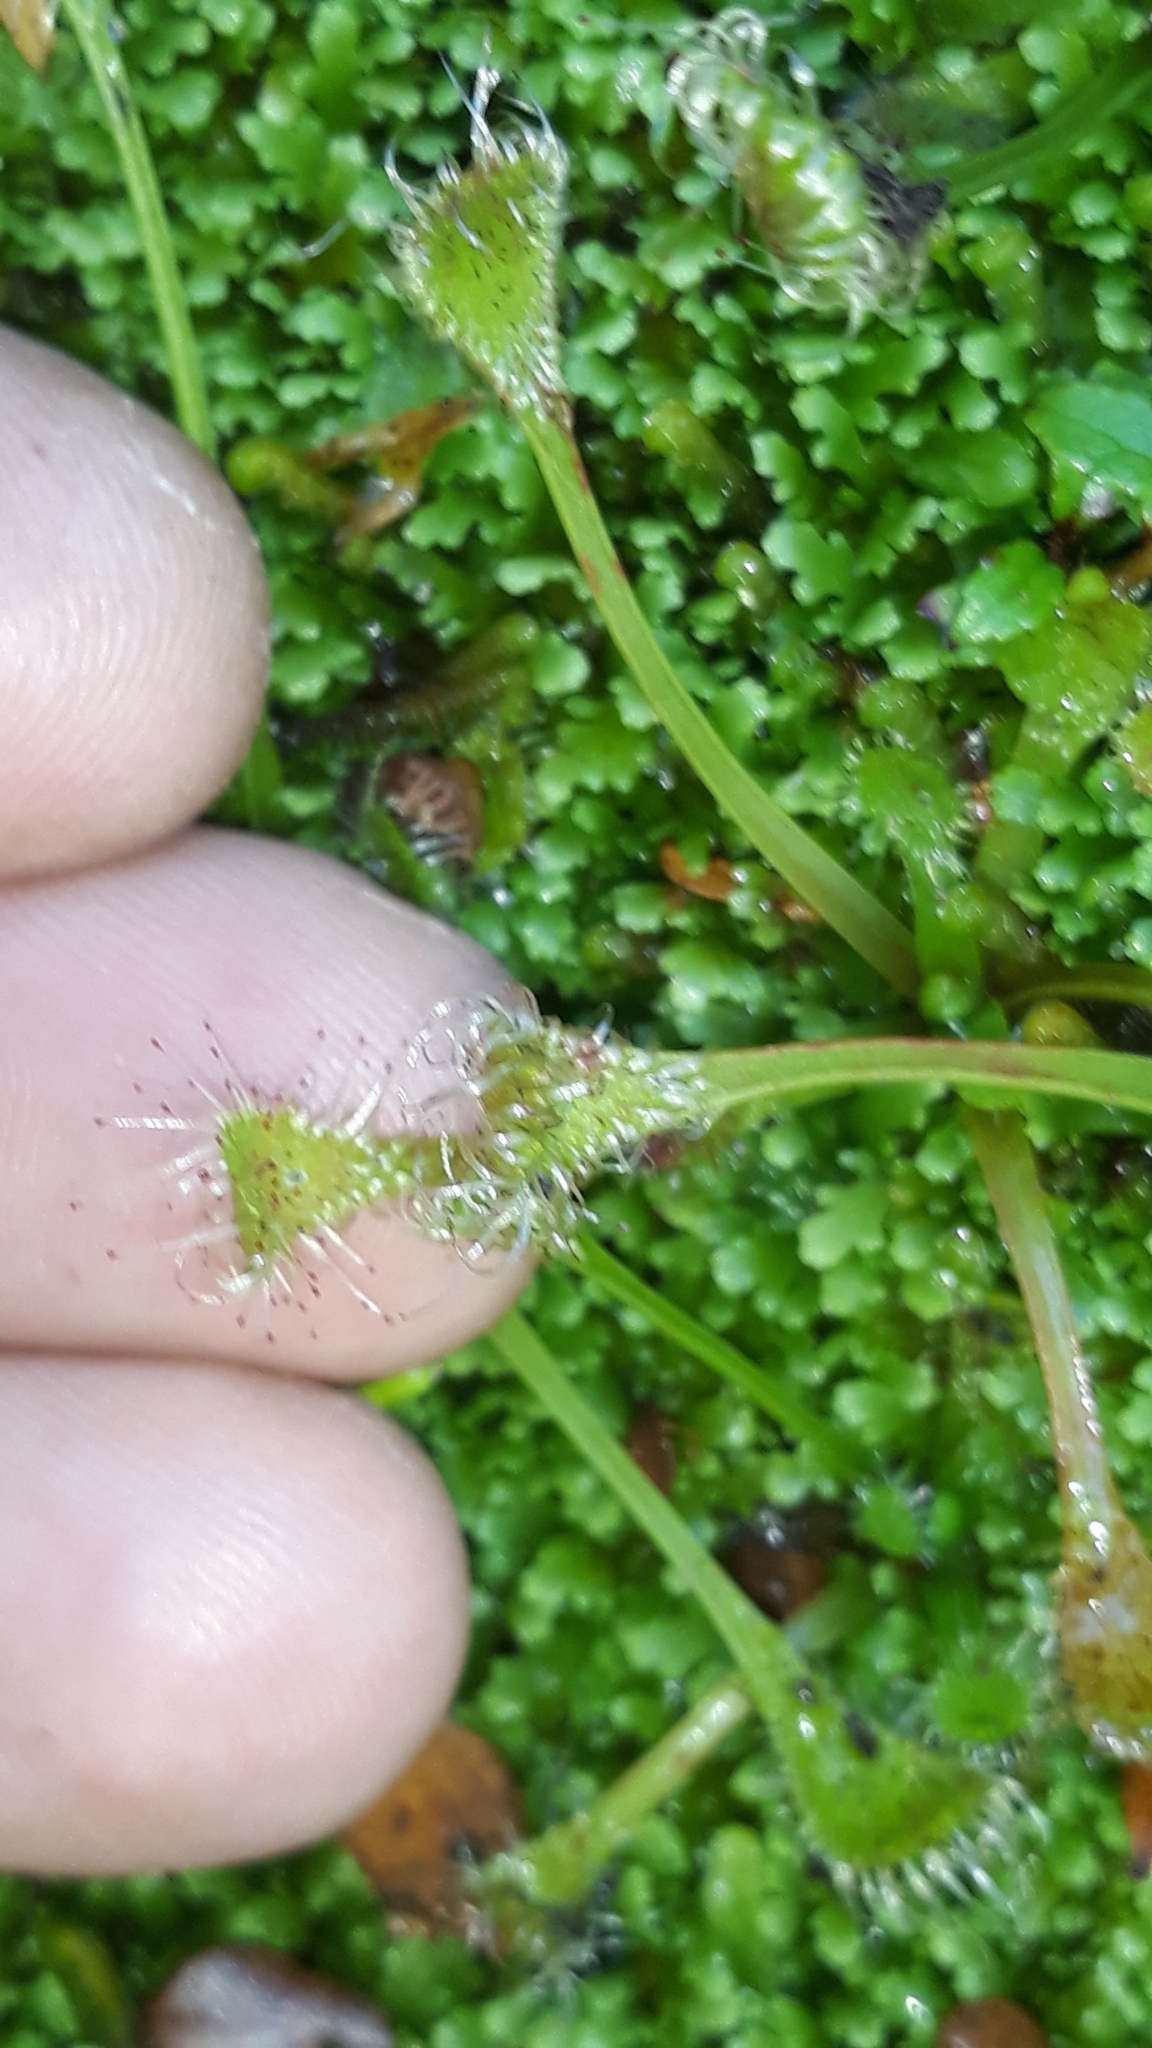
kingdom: Plantae
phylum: Tracheophyta
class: Magnoliopsida
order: Caryophyllales
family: Droseraceae
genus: Drosera
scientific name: Drosera stenopetala
